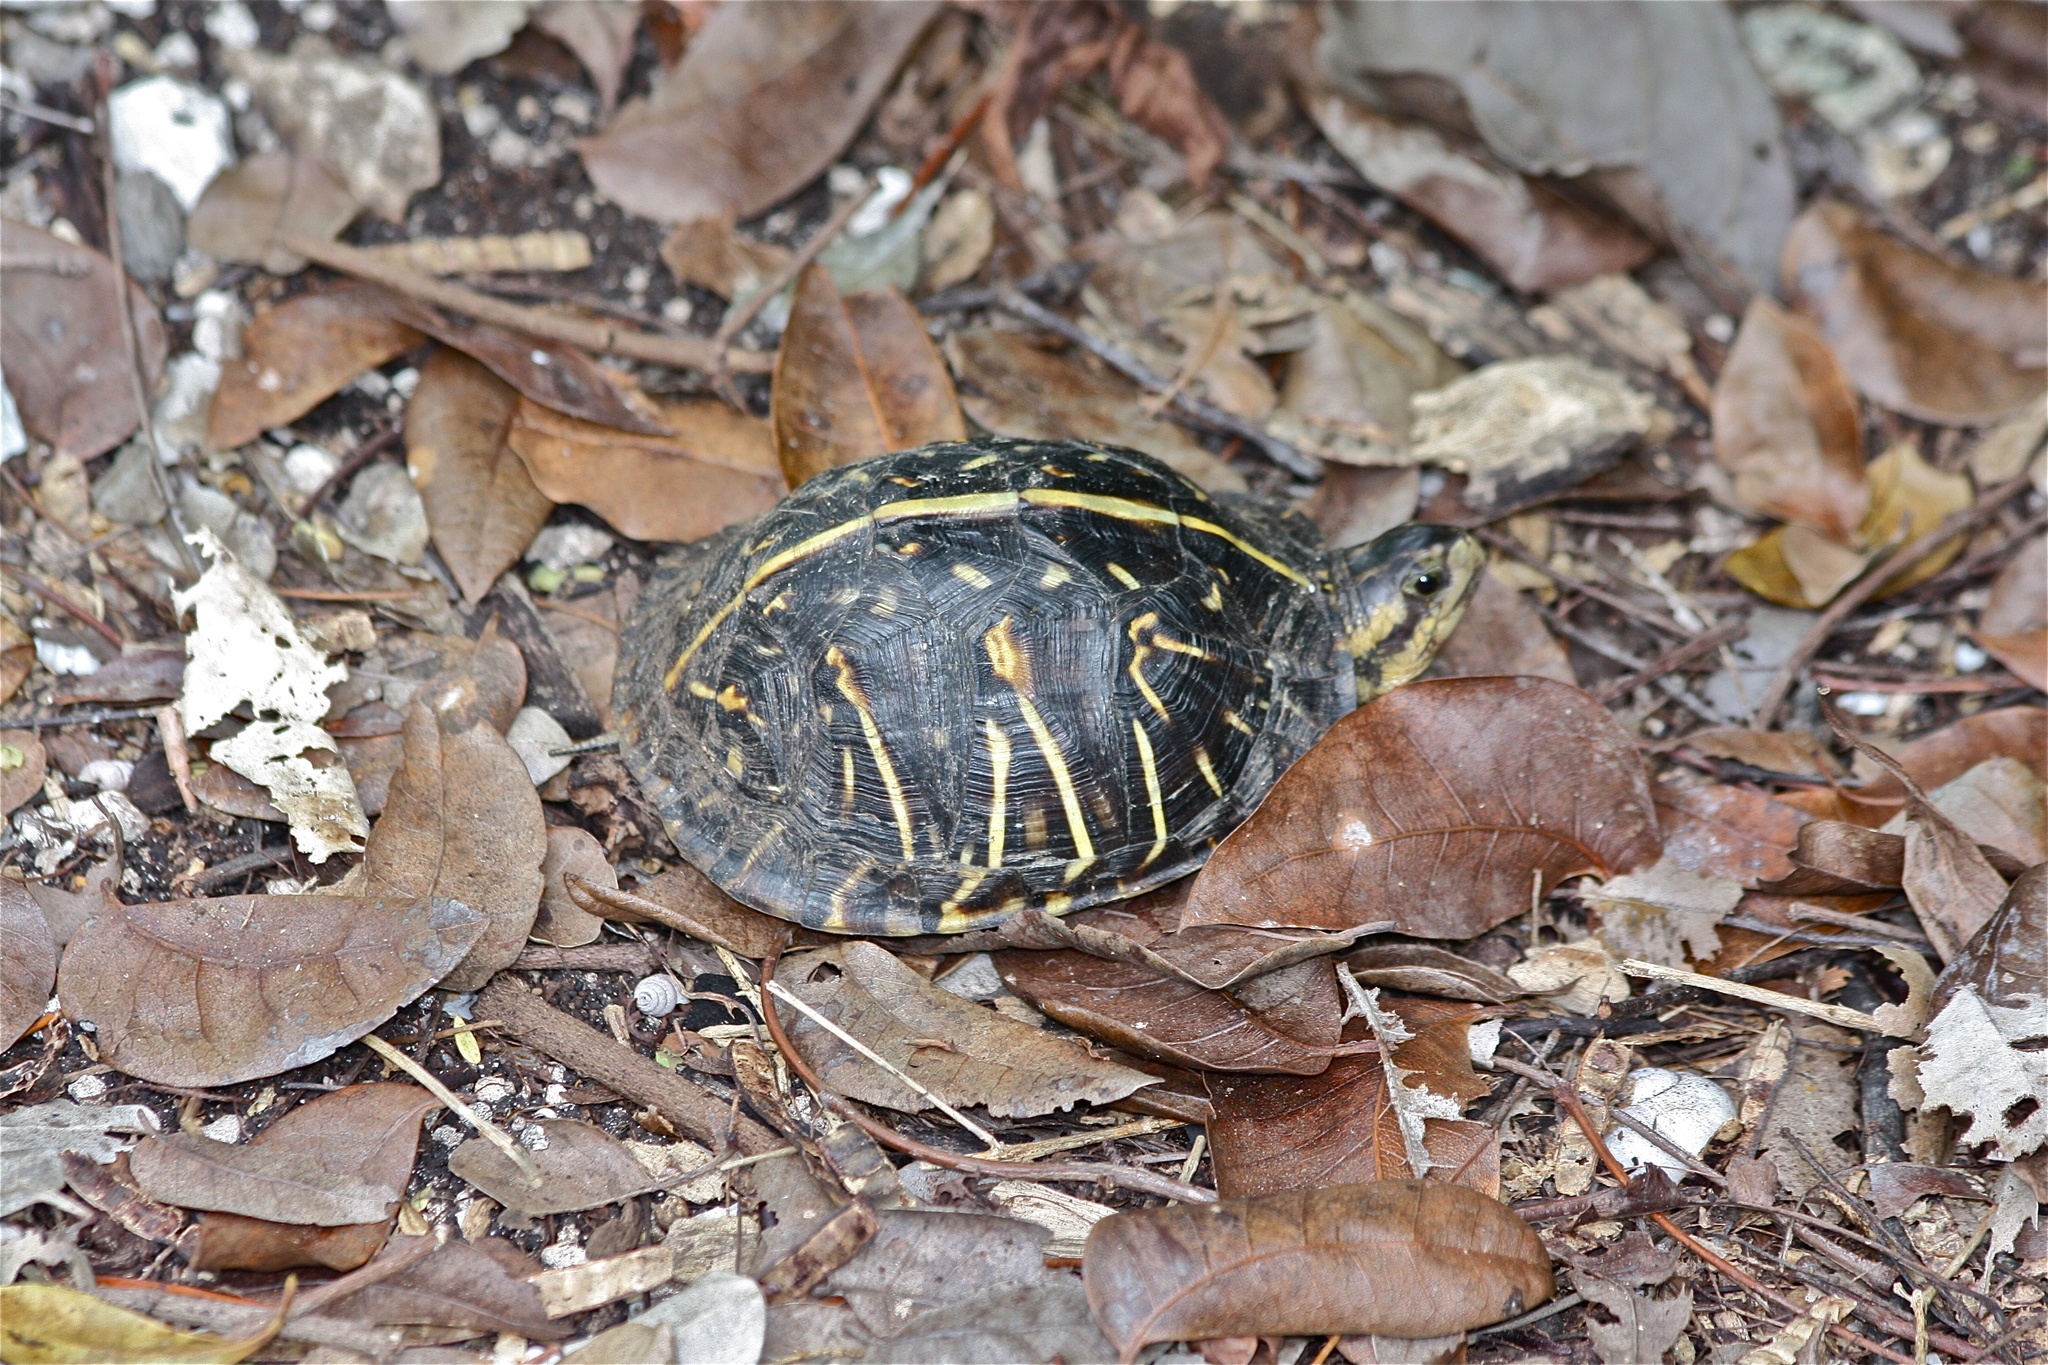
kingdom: Animalia
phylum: Chordata
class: Testudines
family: Emydidae
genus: Terrapene
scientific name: Terrapene carolina
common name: Common box turtle
